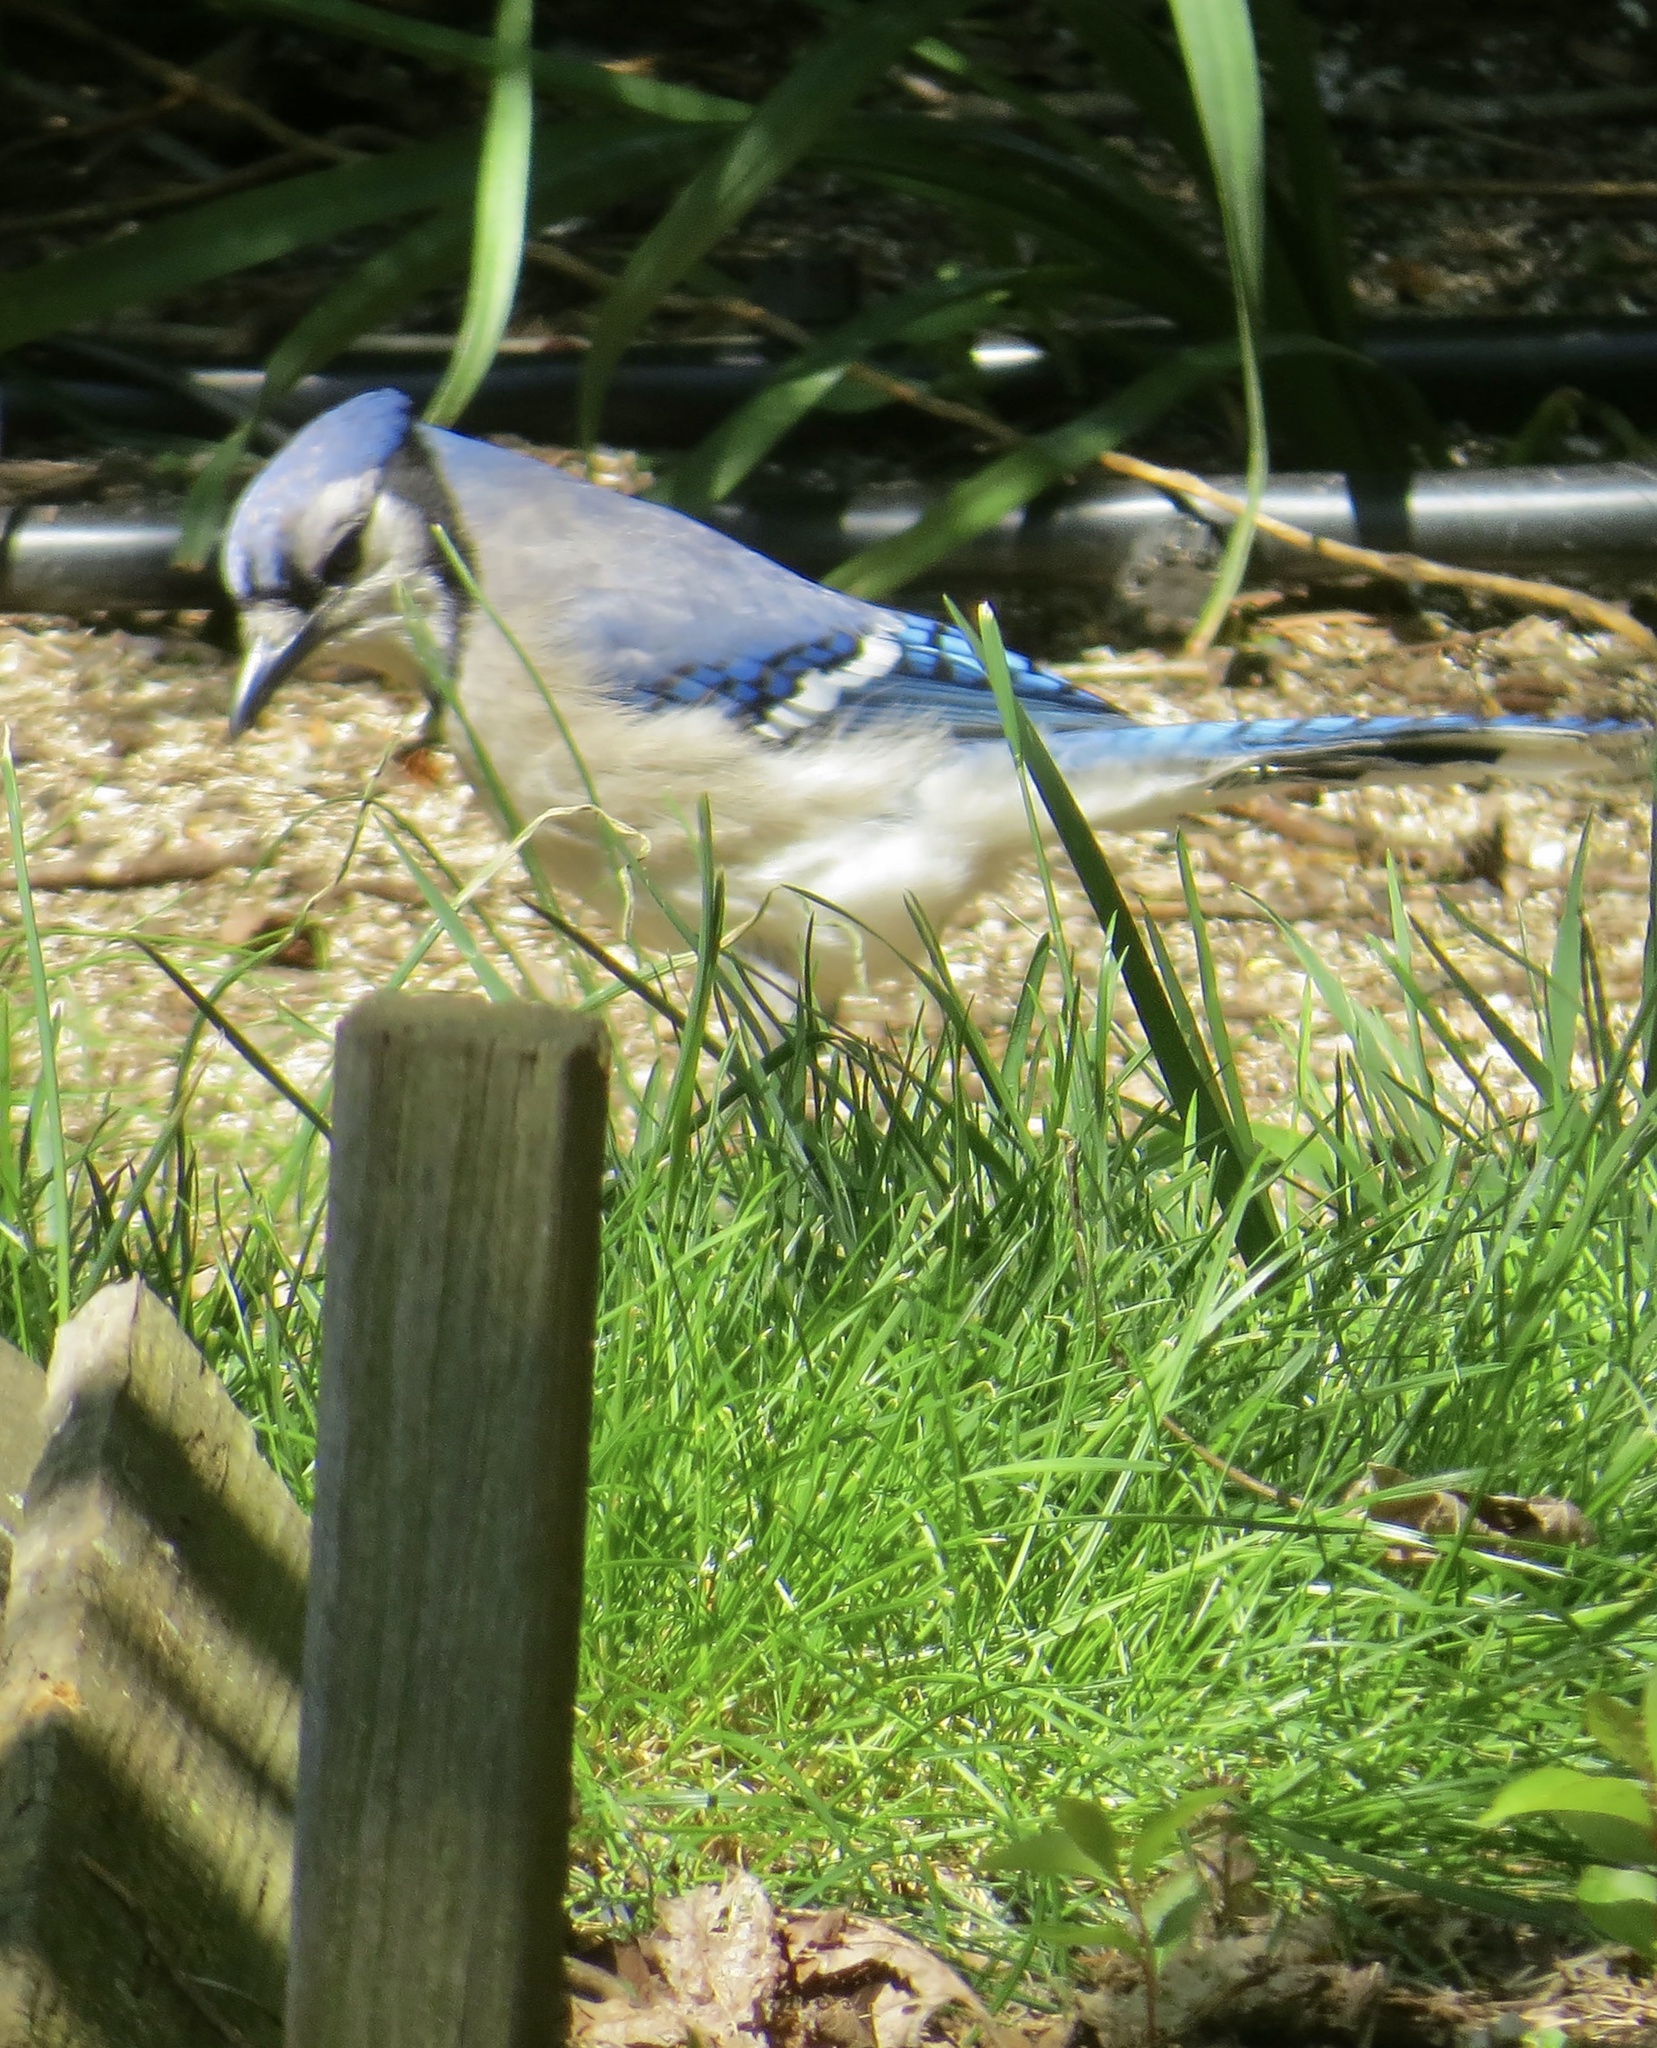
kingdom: Animalia
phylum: Chordata
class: Aves
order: Passeriformes
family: Corvidae
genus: Cyanocitta
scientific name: Cyanocitta cristata
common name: Blue jay
